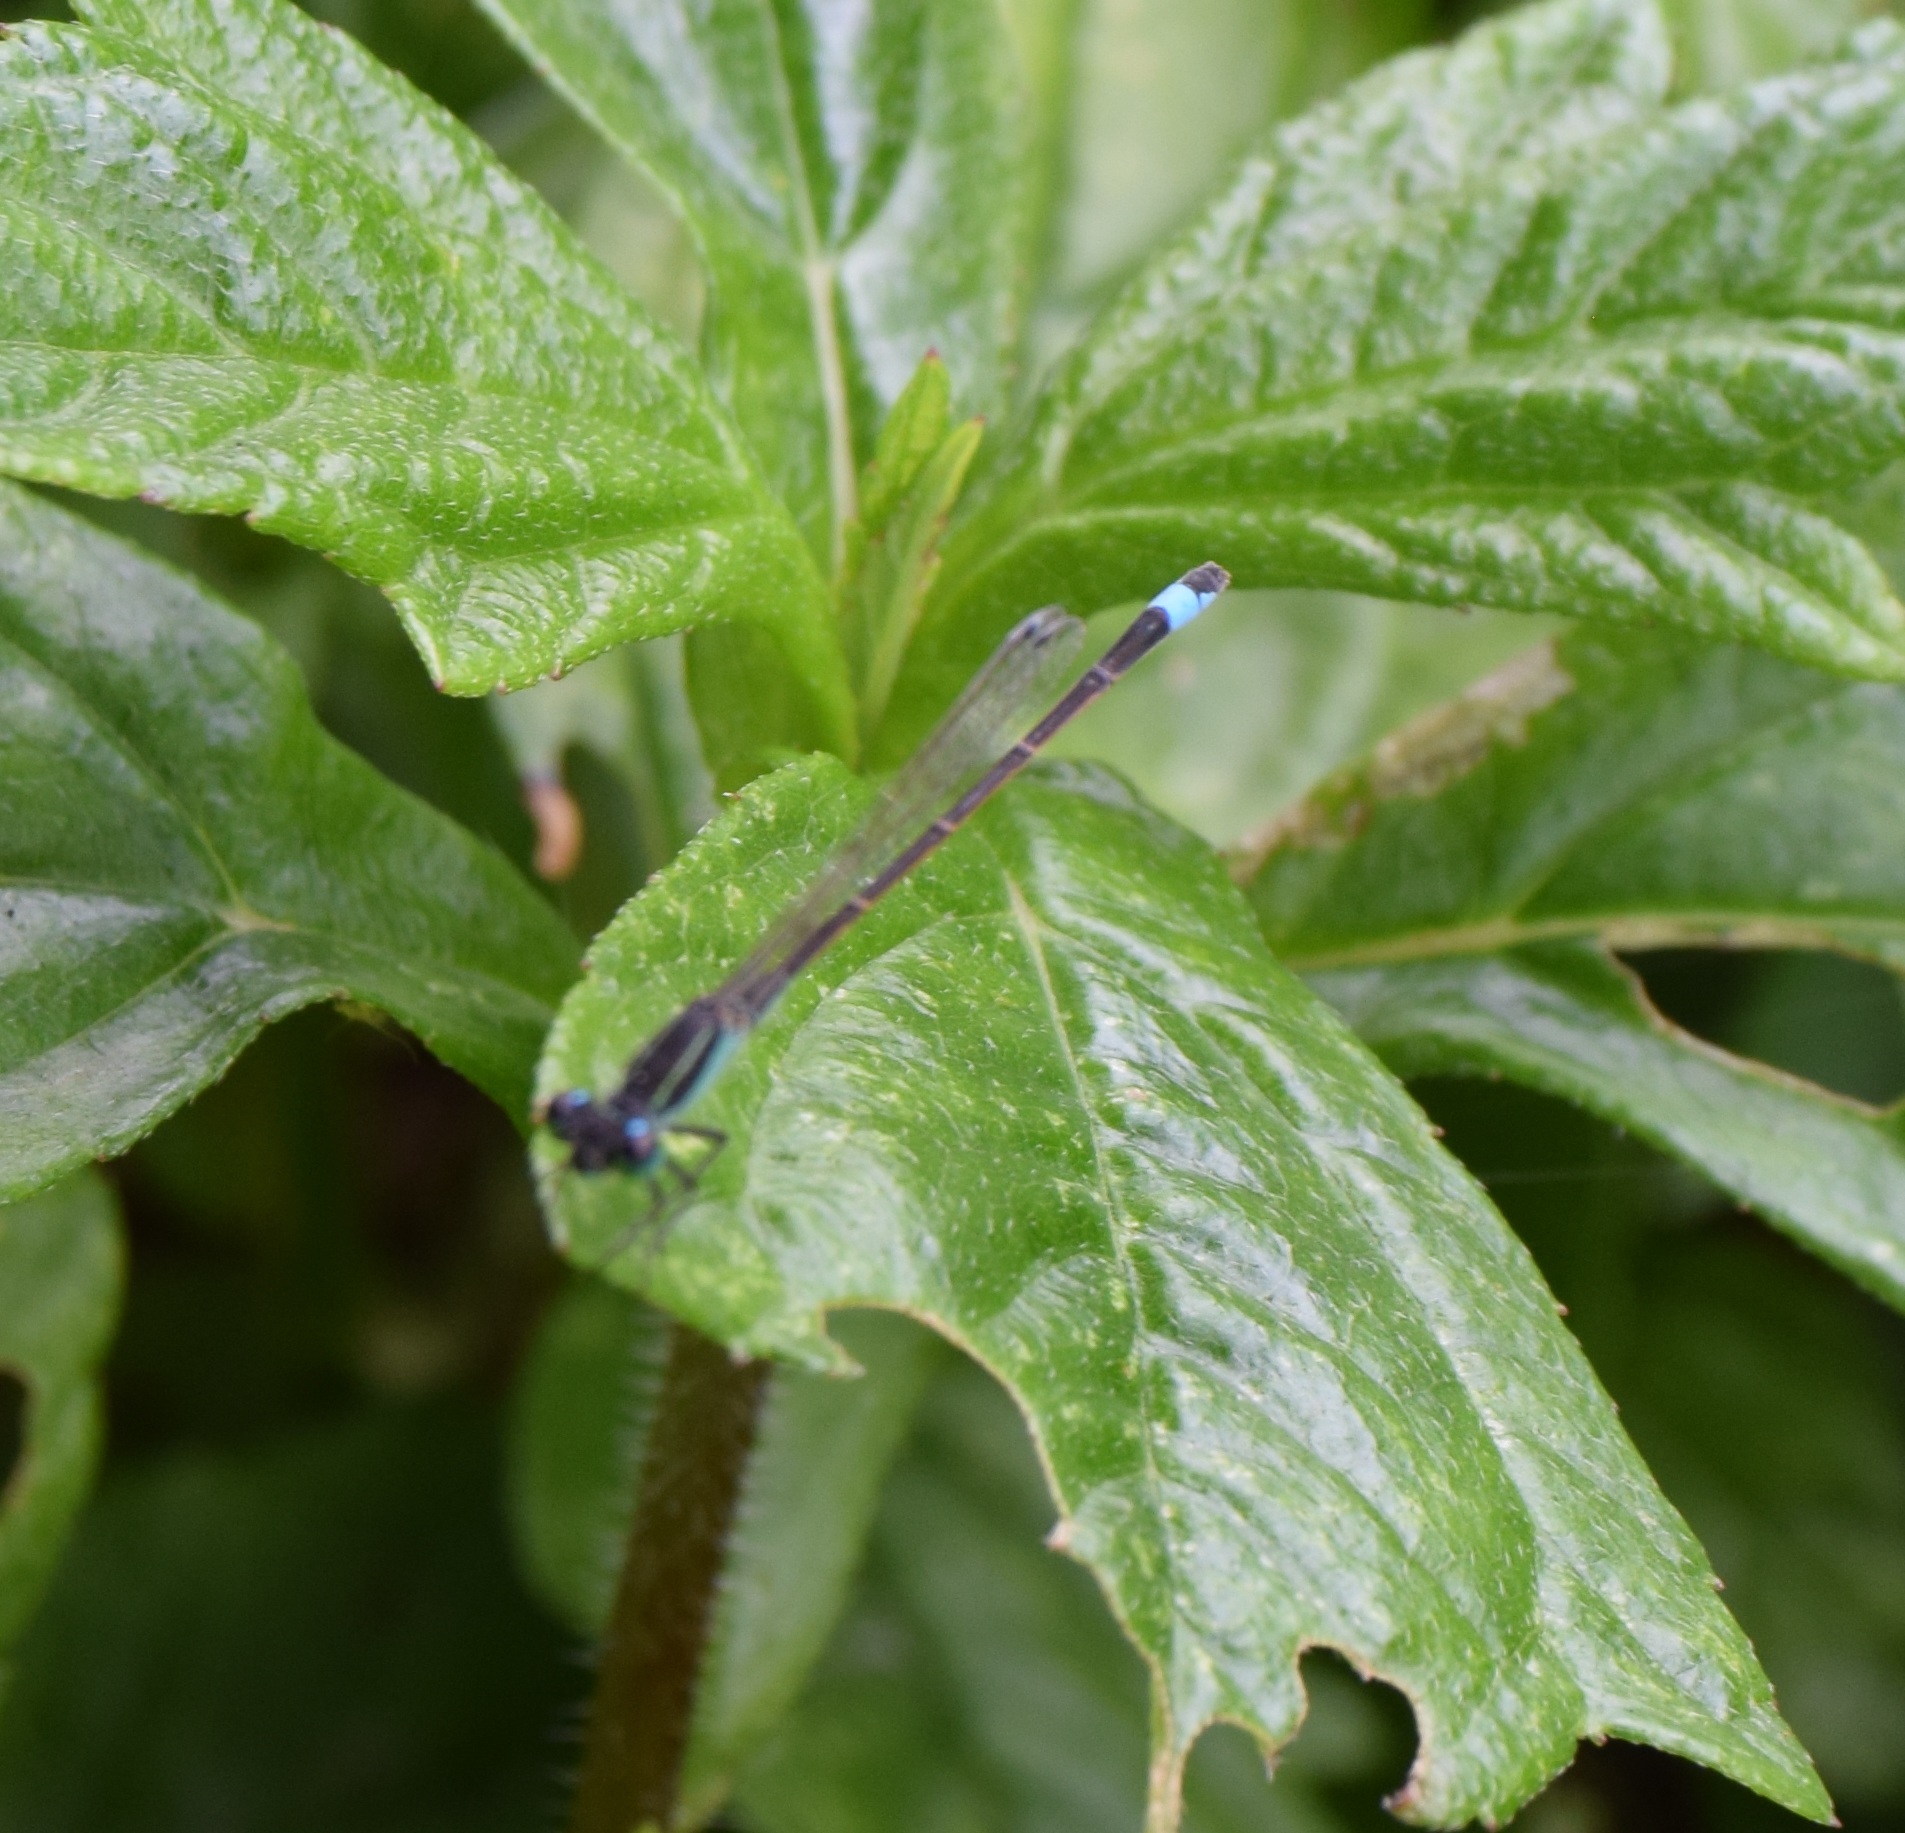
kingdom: Animalia
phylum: Arthropoda
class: Insecta
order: Odonata
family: Coenagrionidae
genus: Ischnura
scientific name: Ischnura ramburii
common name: Rambur's forktail
